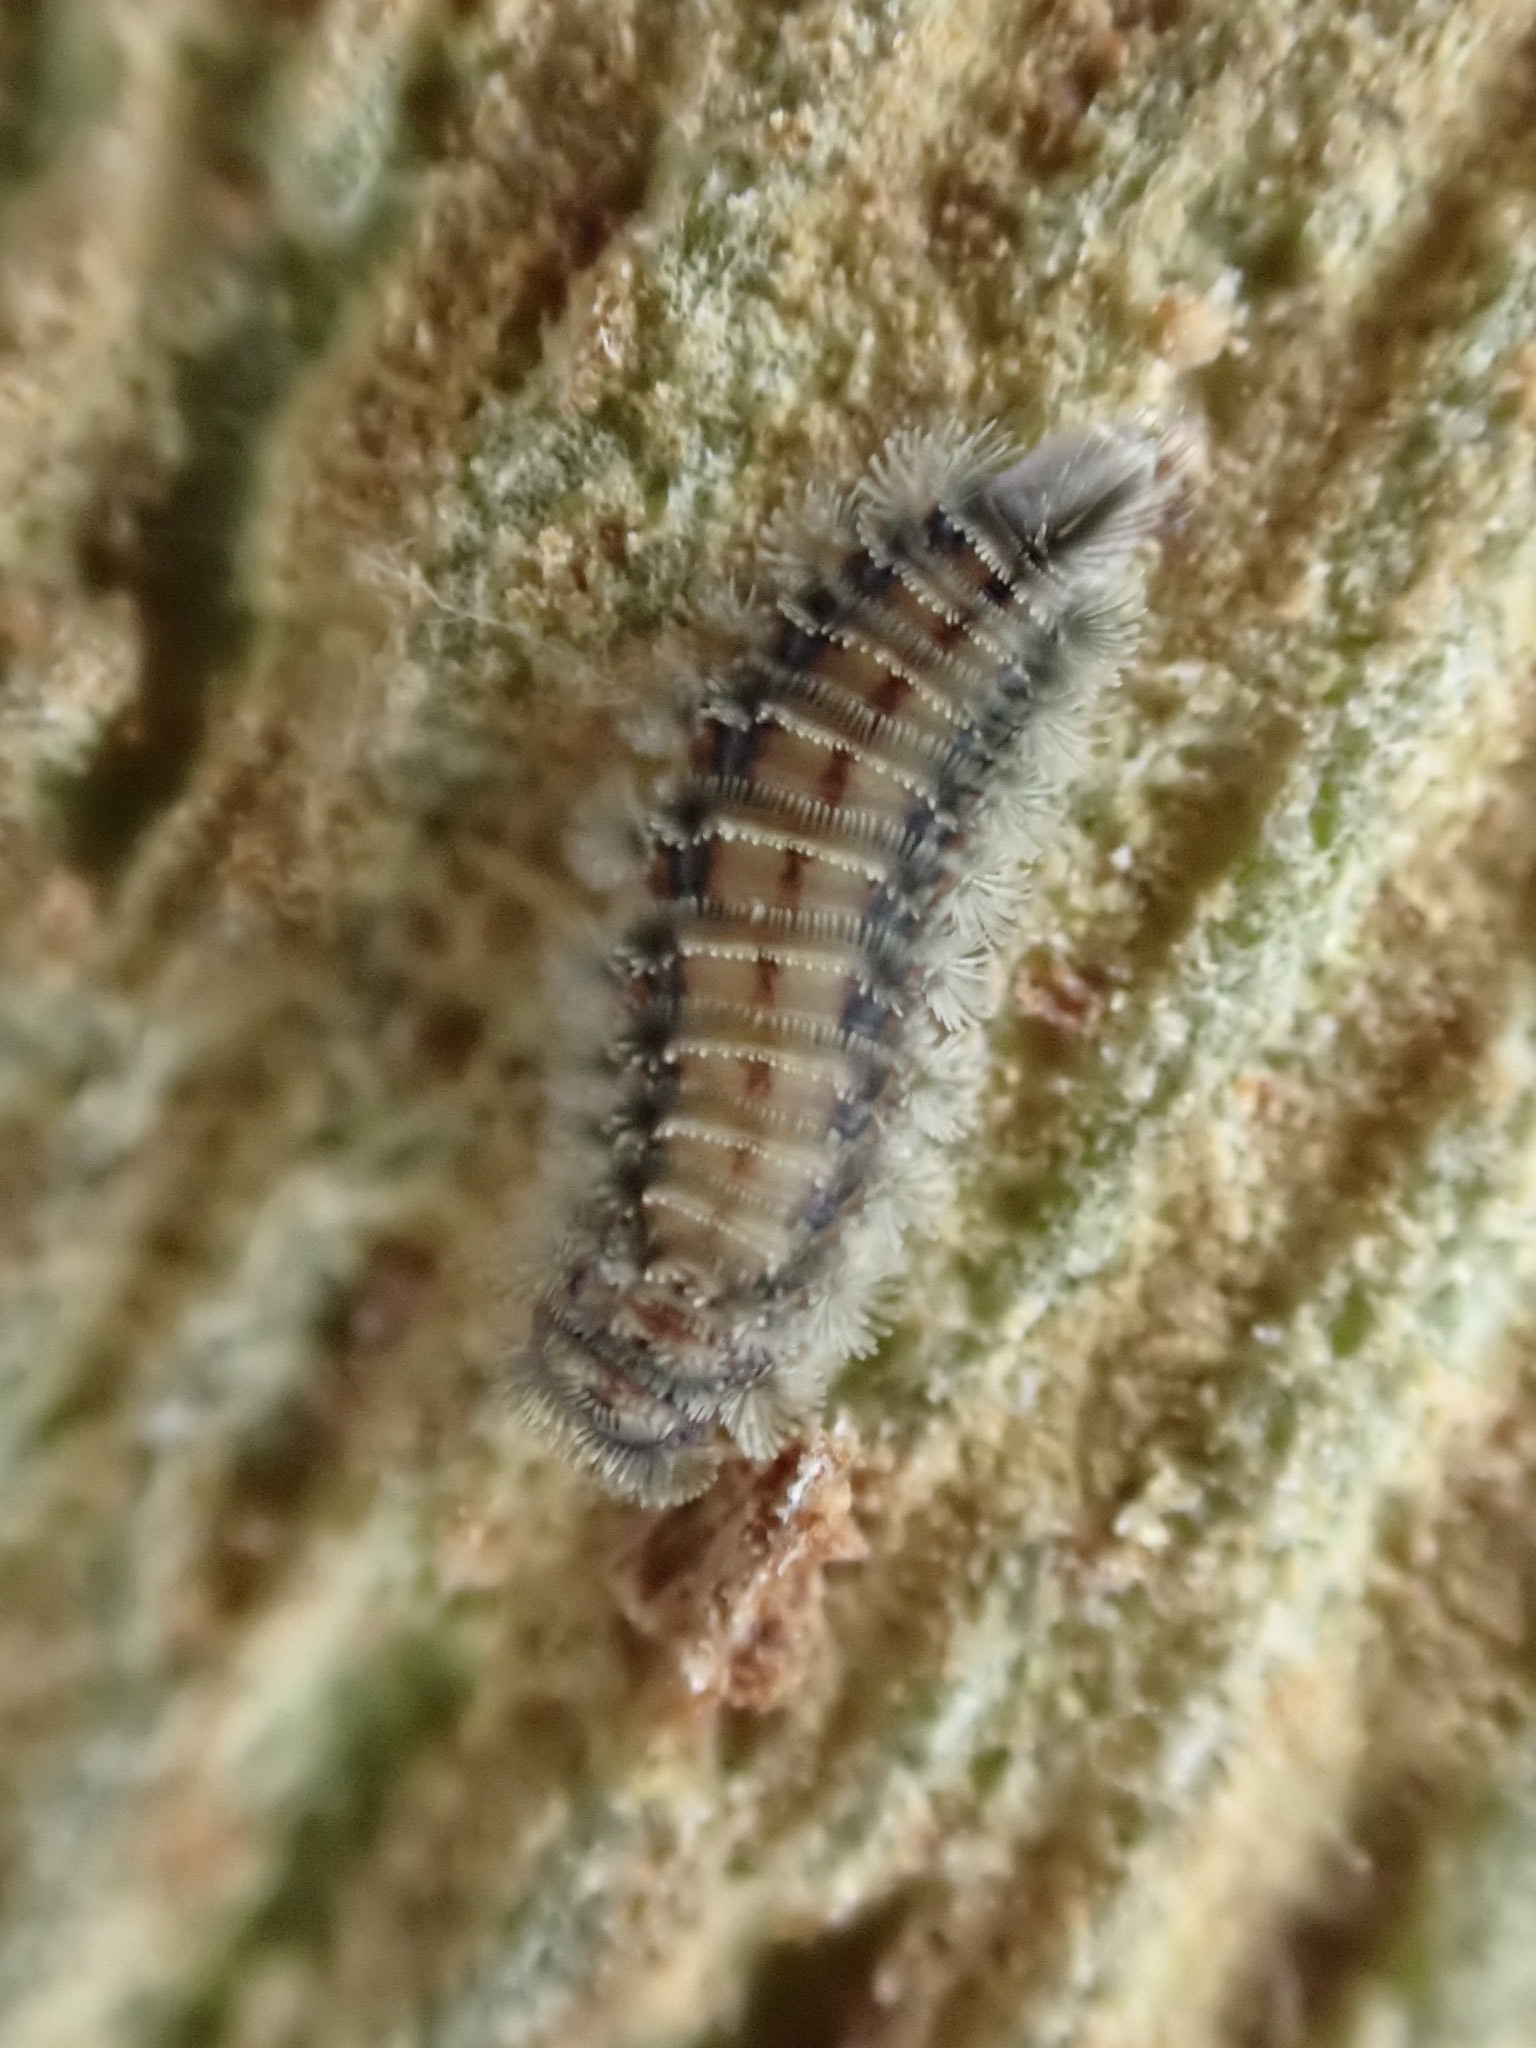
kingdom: Animalia
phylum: Arthropoda
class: Diplopoda
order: Polyxenida
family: Polyxenidae
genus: Polyxenus
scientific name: Polyxenus lagurus
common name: Bristly millipede
